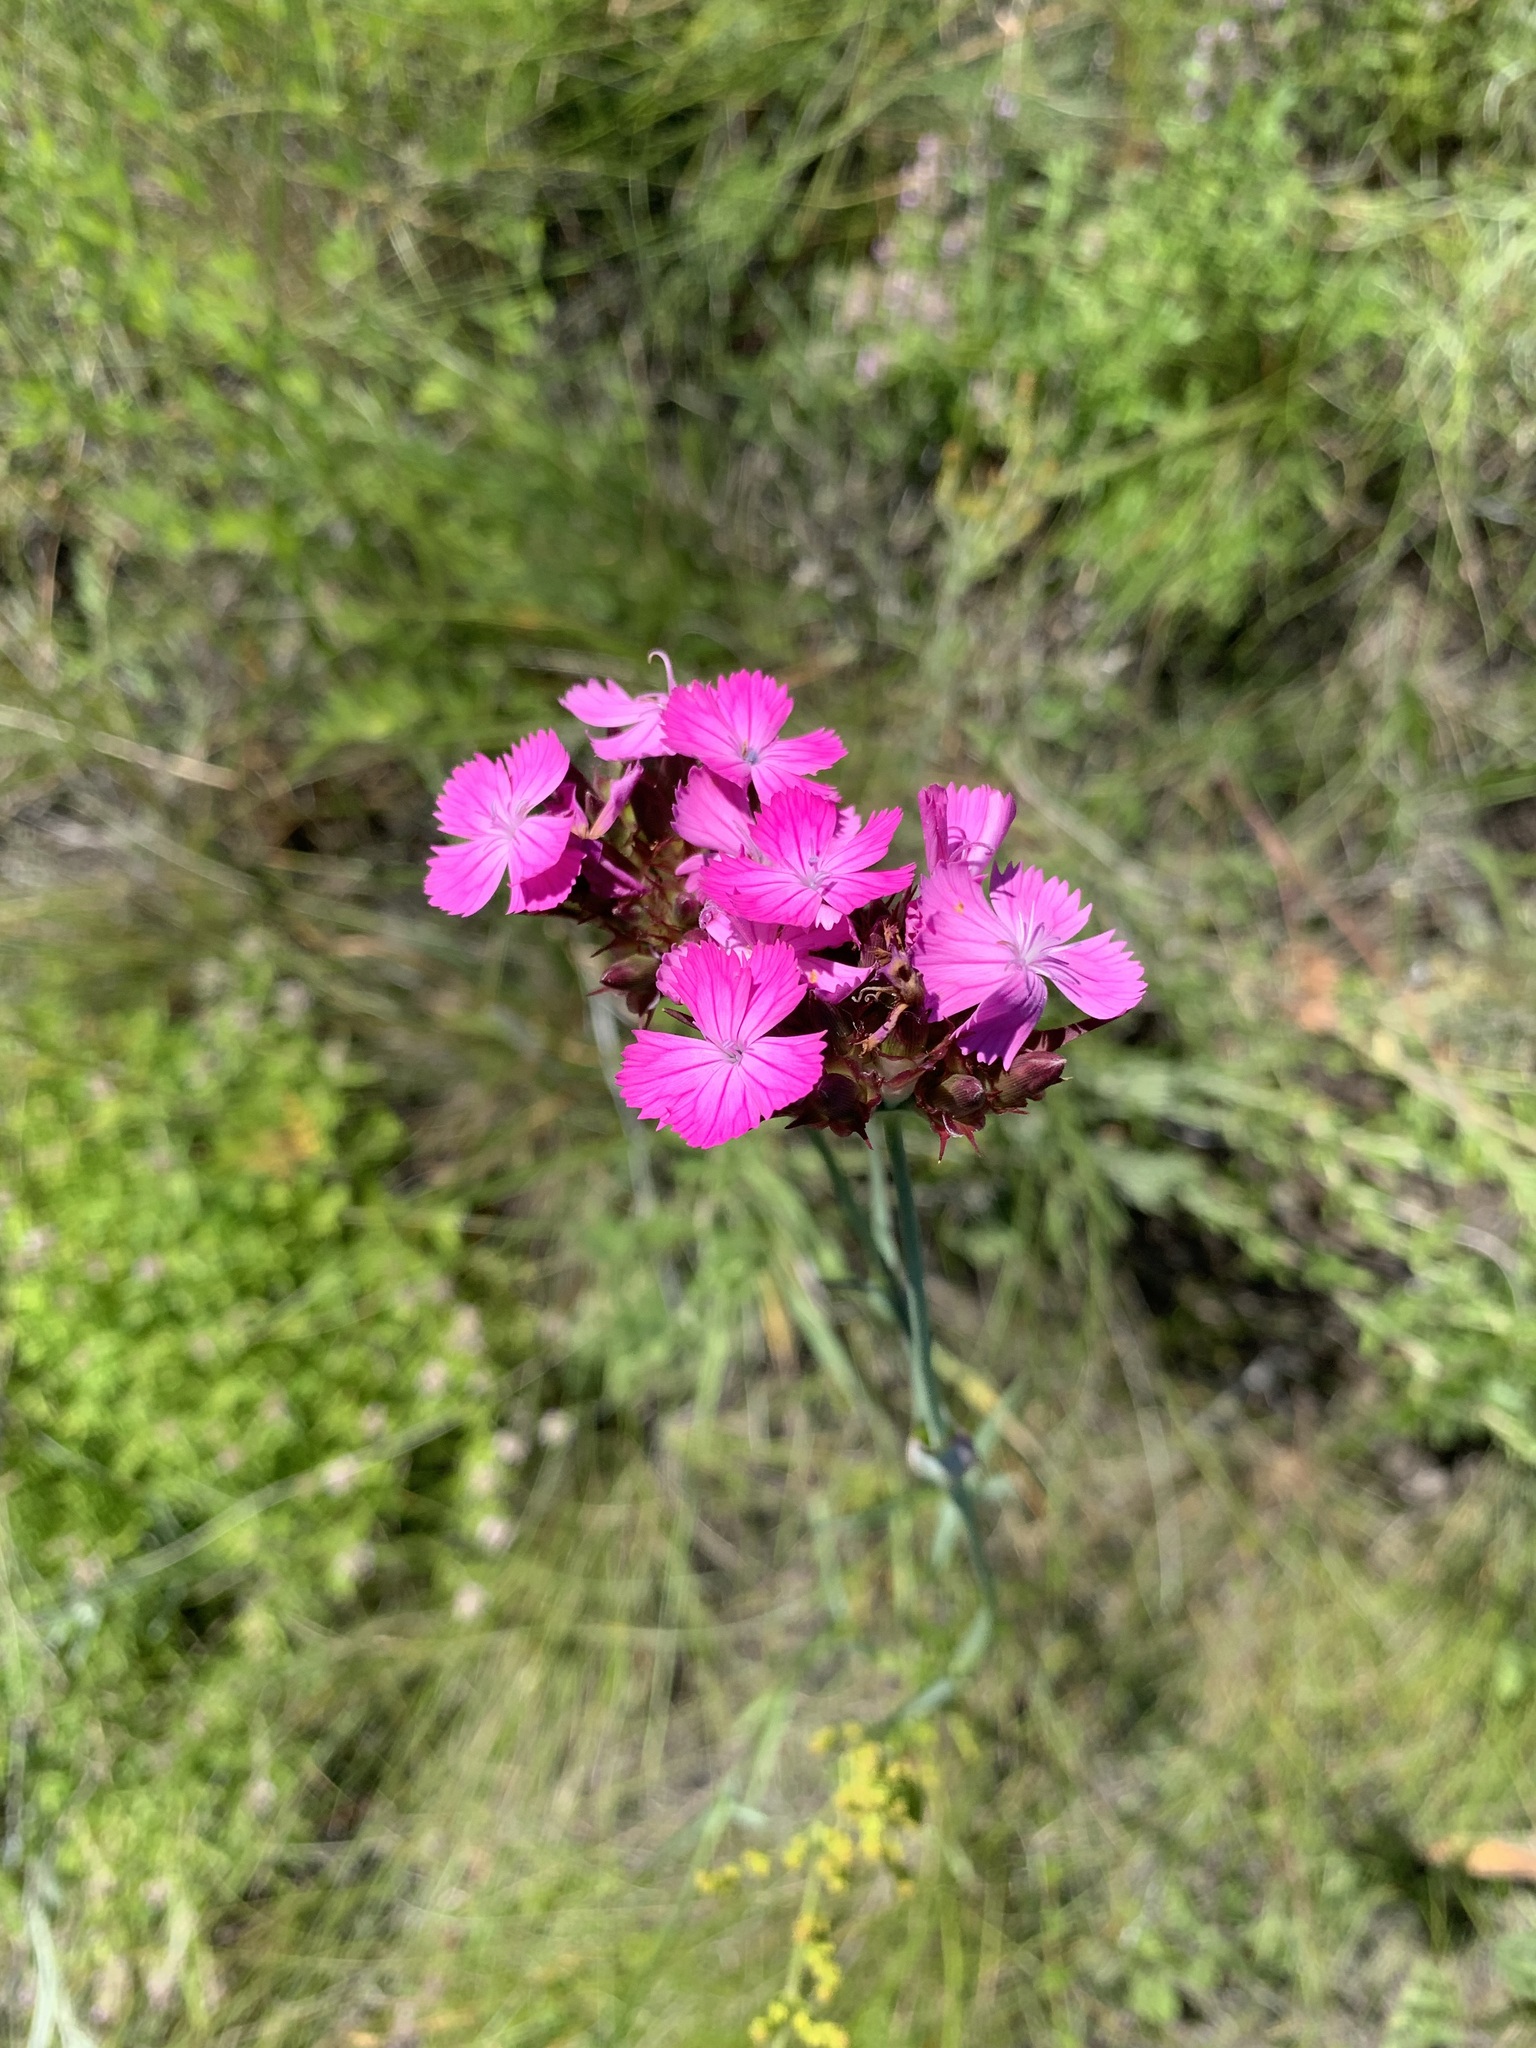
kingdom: Plantae
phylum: Tracheophyta
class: Magnoliopsida
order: Caryophyllales
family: Caryophyllaceae
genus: Dianthus
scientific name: Dianthus capitatus
